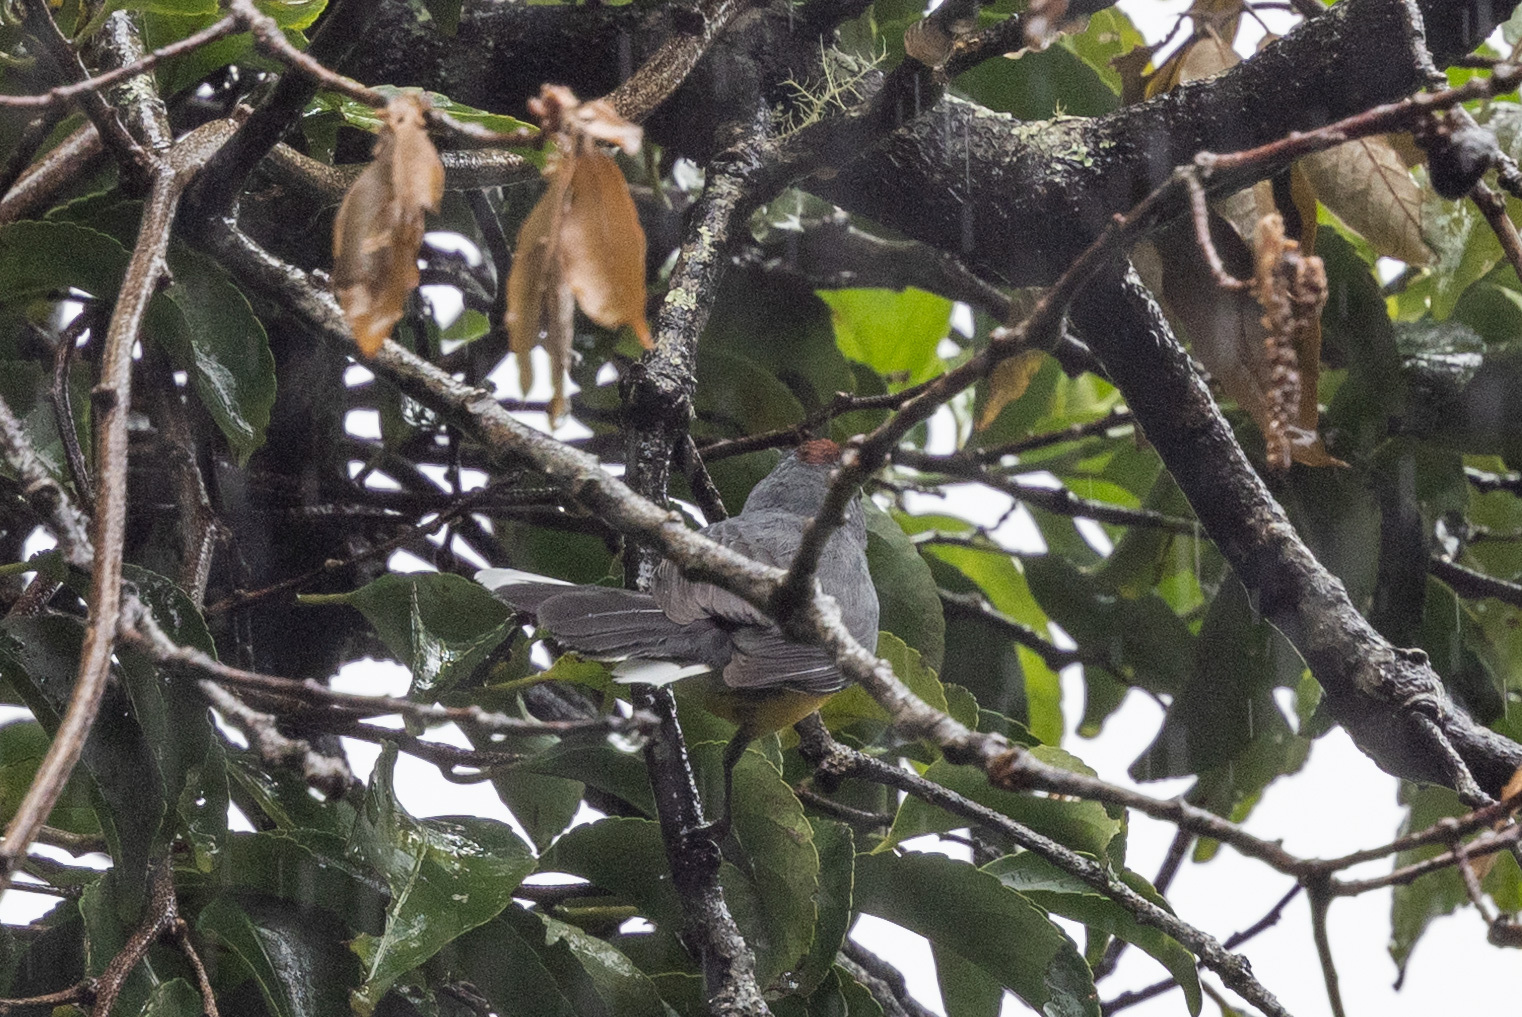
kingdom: Animalia
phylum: Chordata
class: Aves
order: Passeriformes
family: Parulidae
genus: Myioborus
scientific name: Myioborus miniatus
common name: Slate-throated redstart
